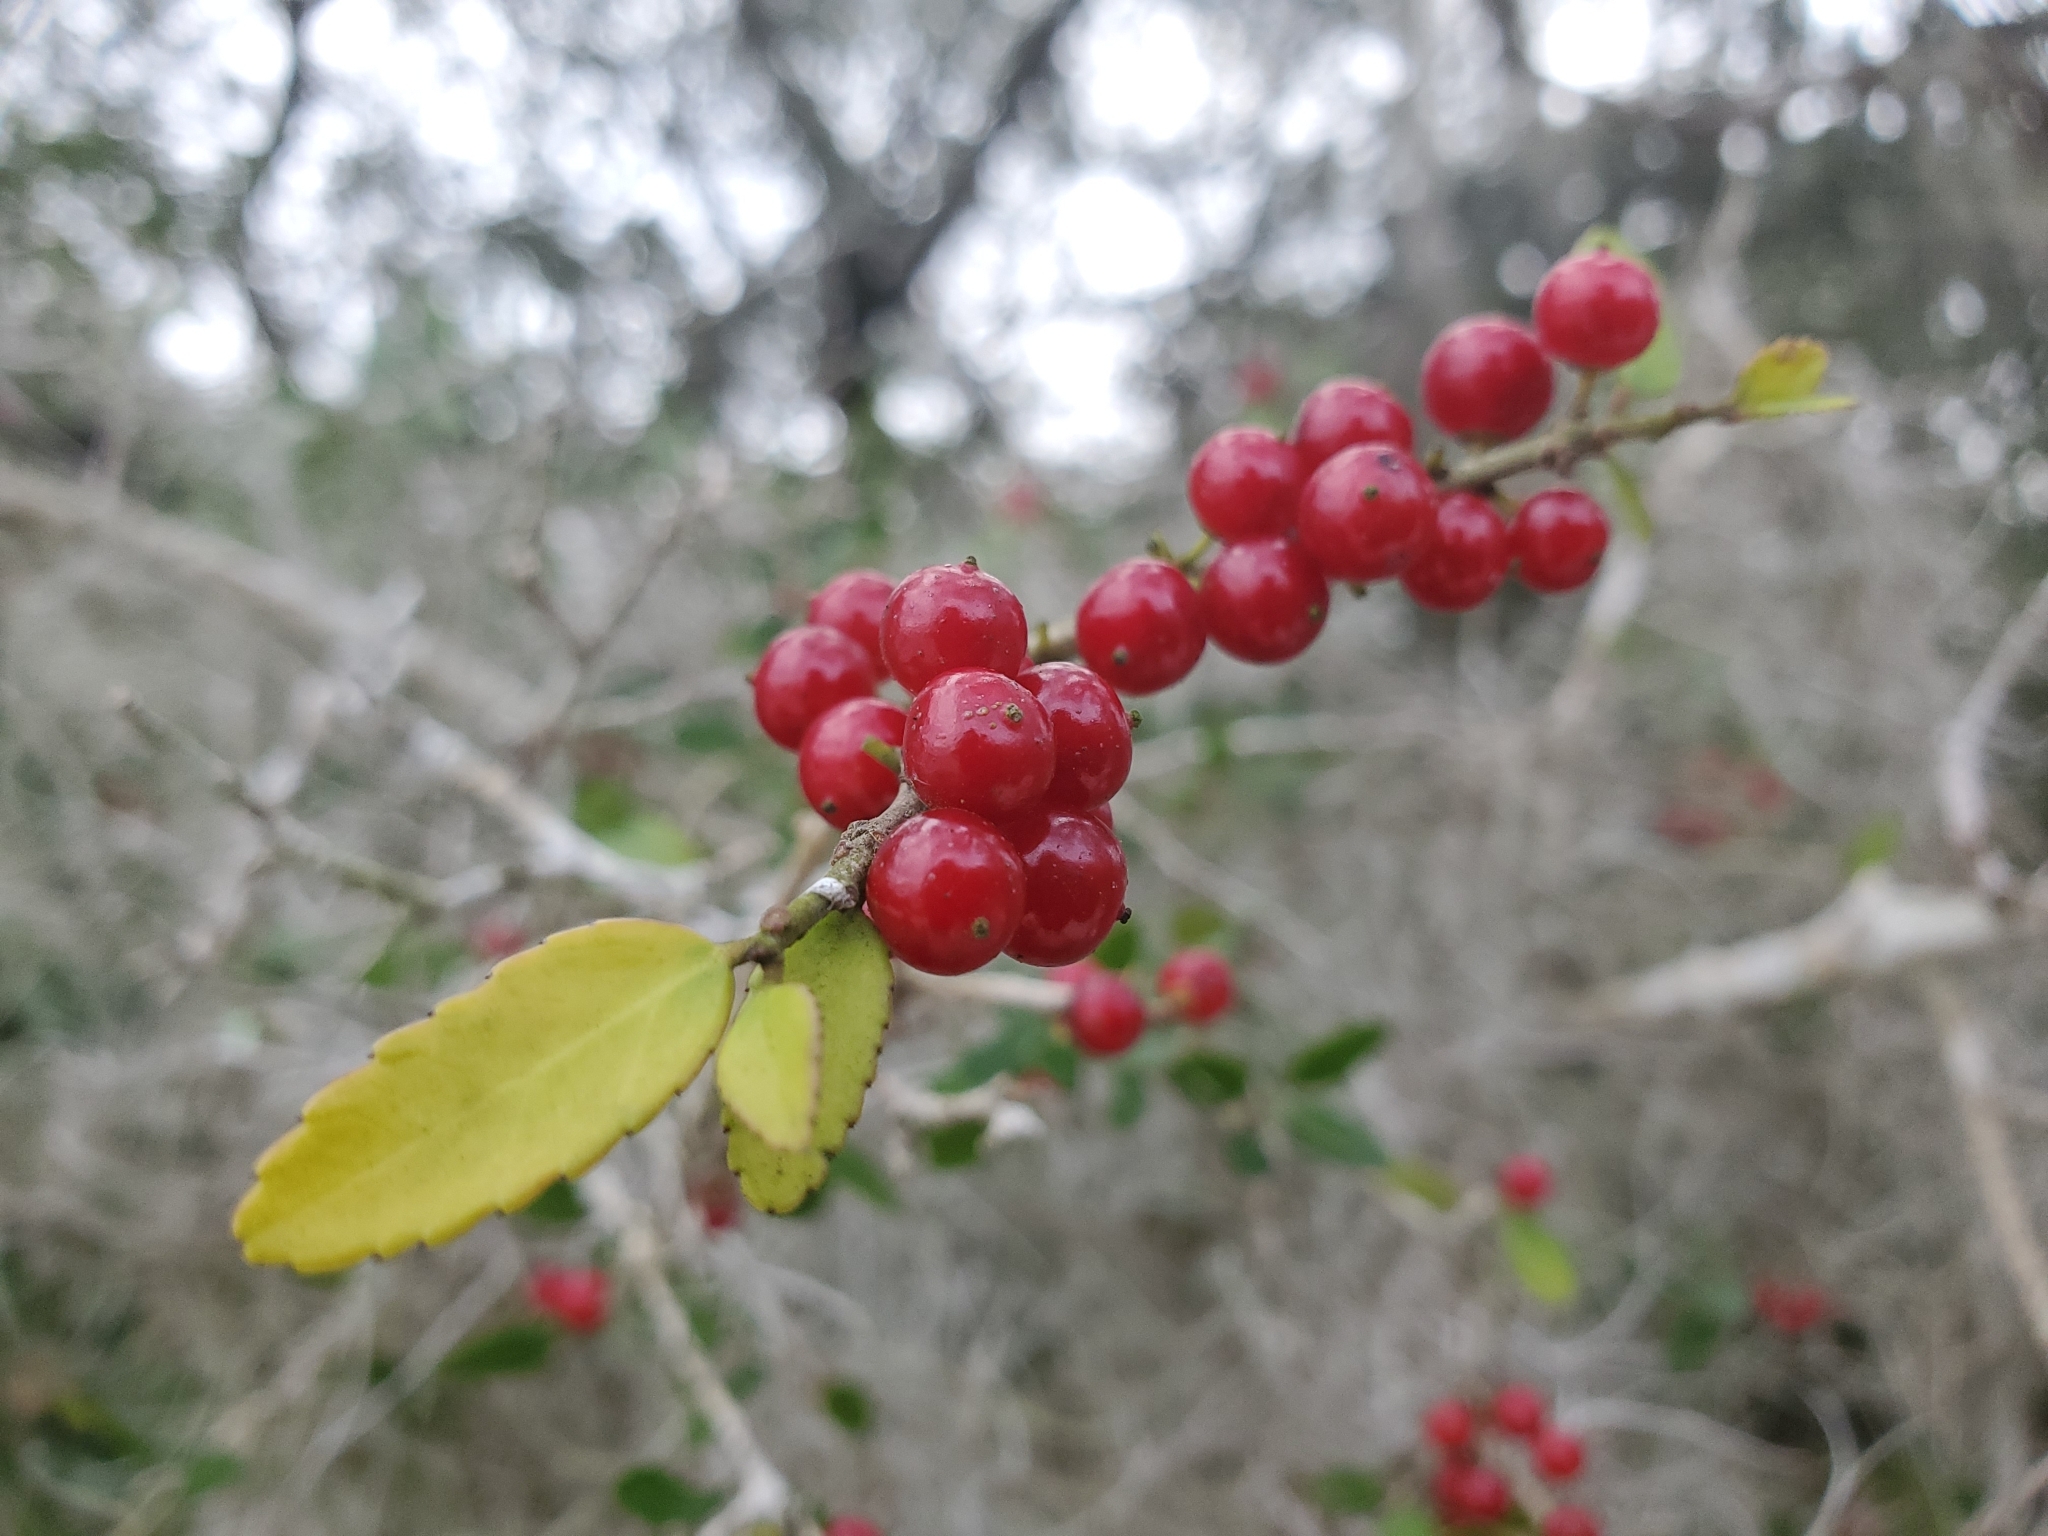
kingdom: Plantae
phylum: Tracheophyta
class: Magnoliopsida
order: Aquifoliales
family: Aquifoliaceae
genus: Ilex
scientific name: Ilex vomitoria
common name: Yaupon holly
